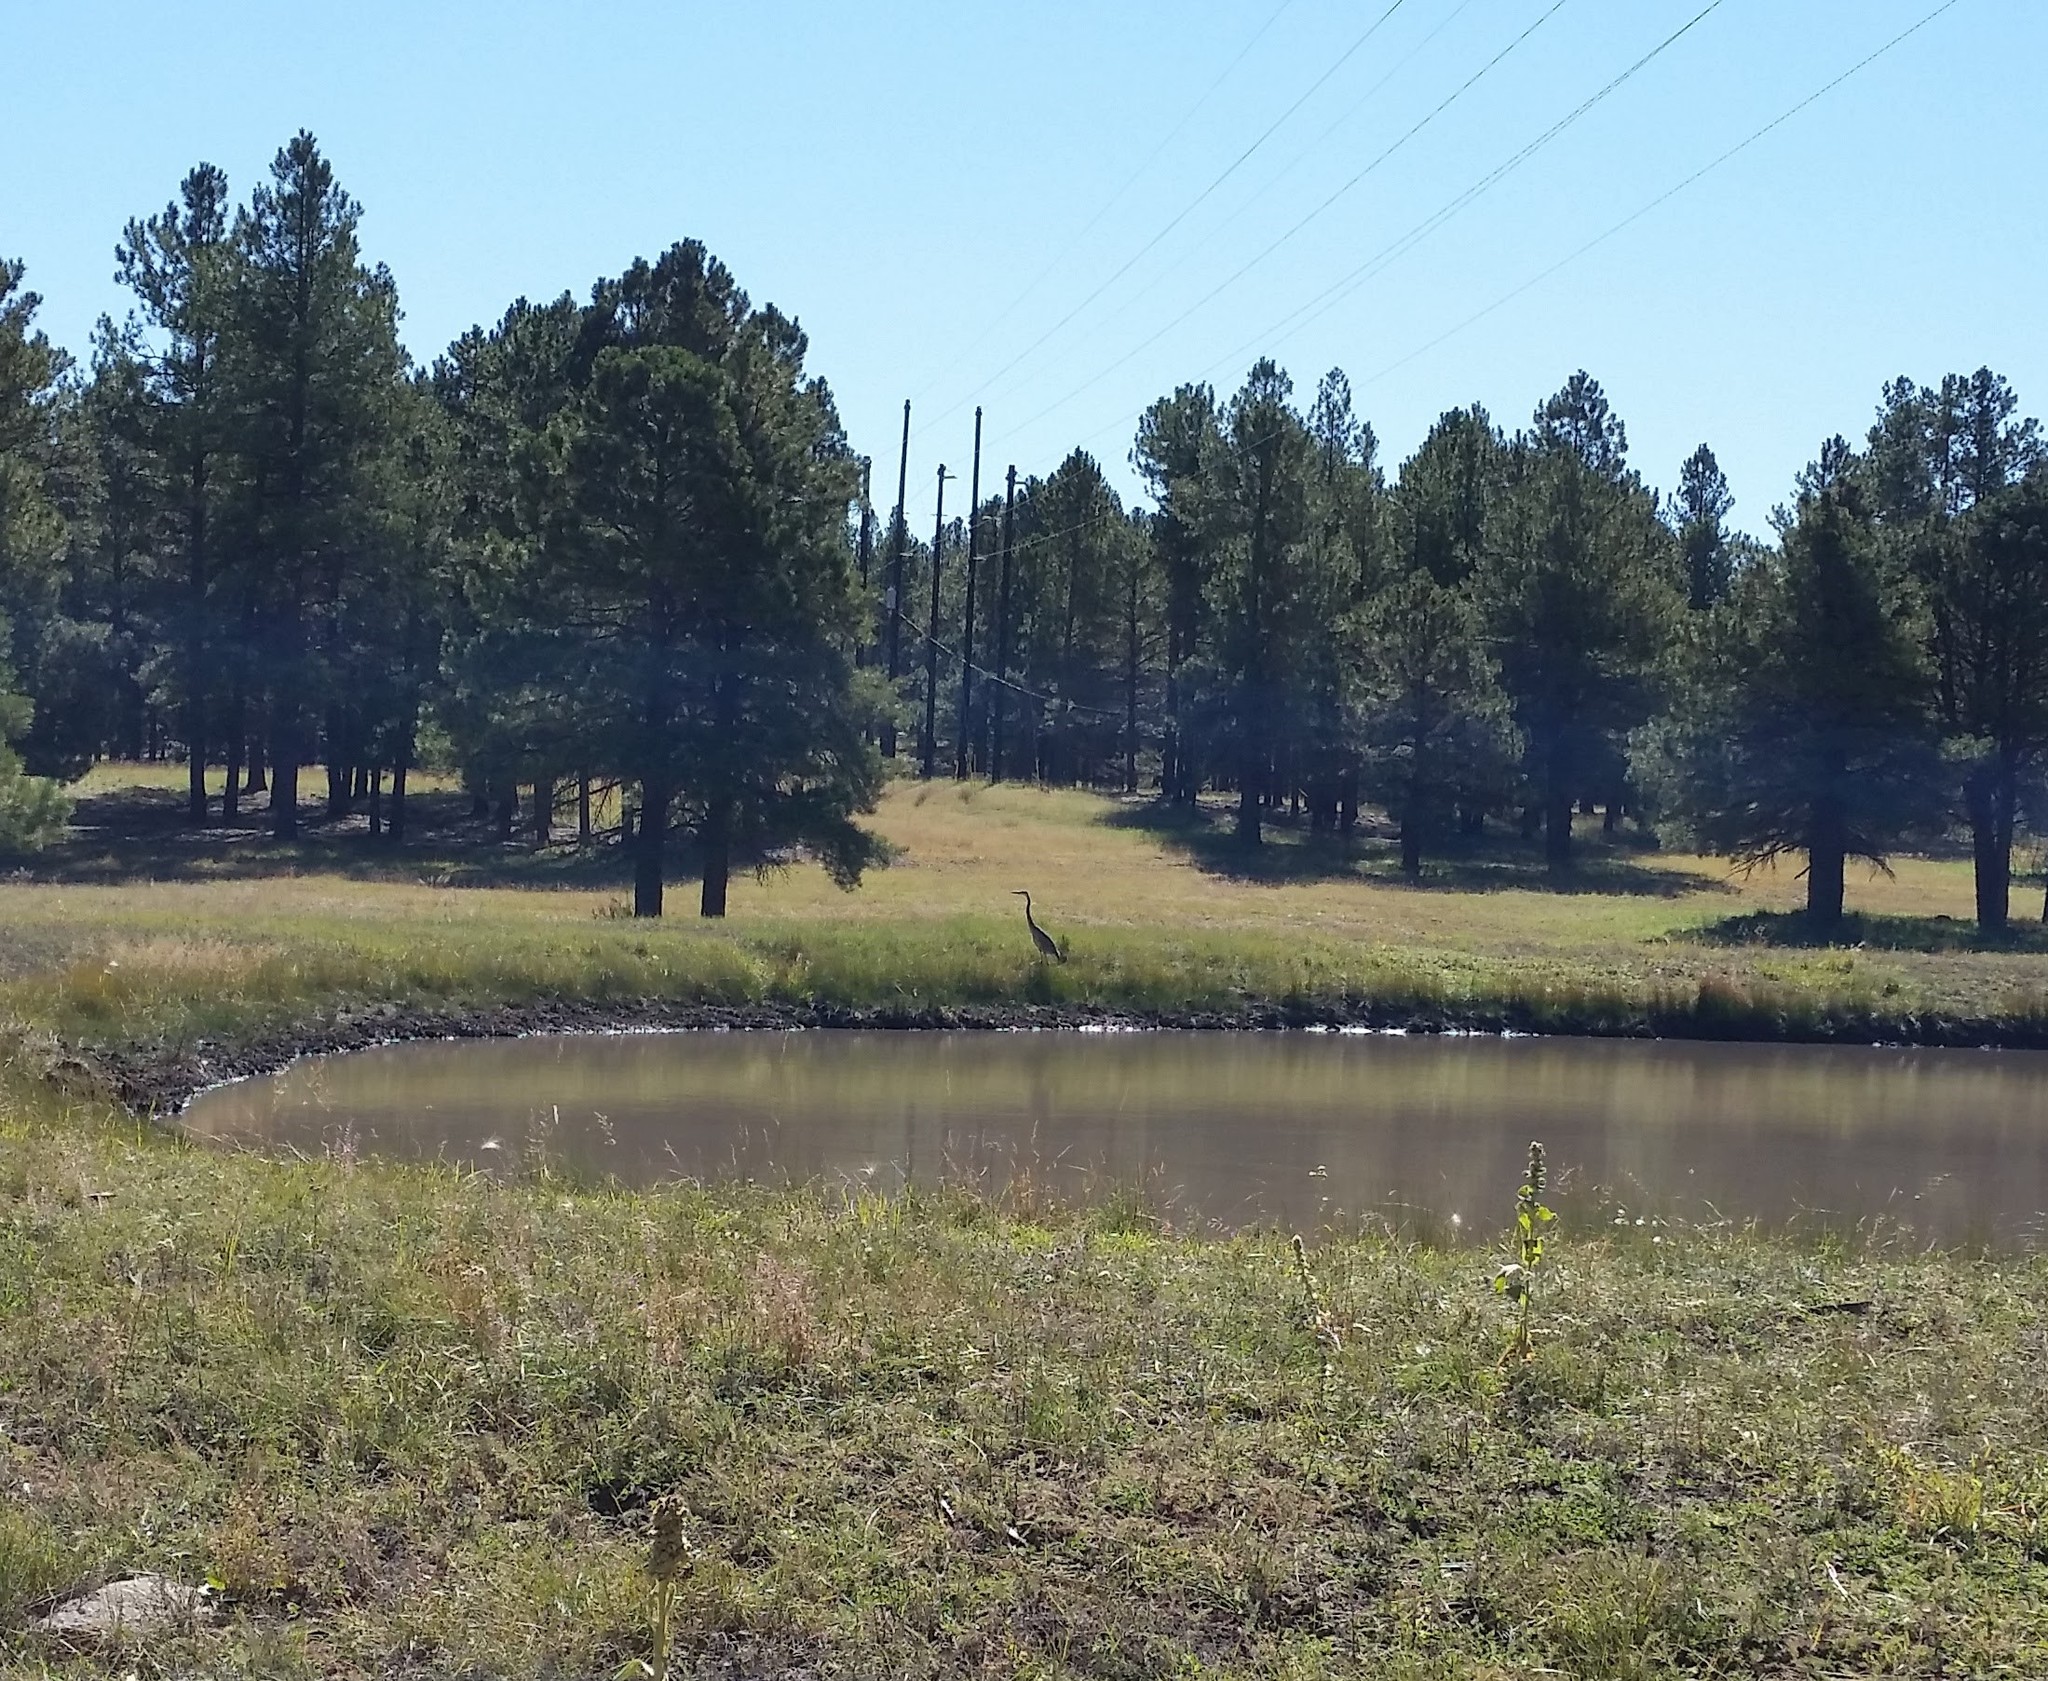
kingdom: Animalia
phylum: Chordata
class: Aves
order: Pelecaniformes
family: Ardeidae
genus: Ardea
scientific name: Ardea herodias
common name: Great blue heron
